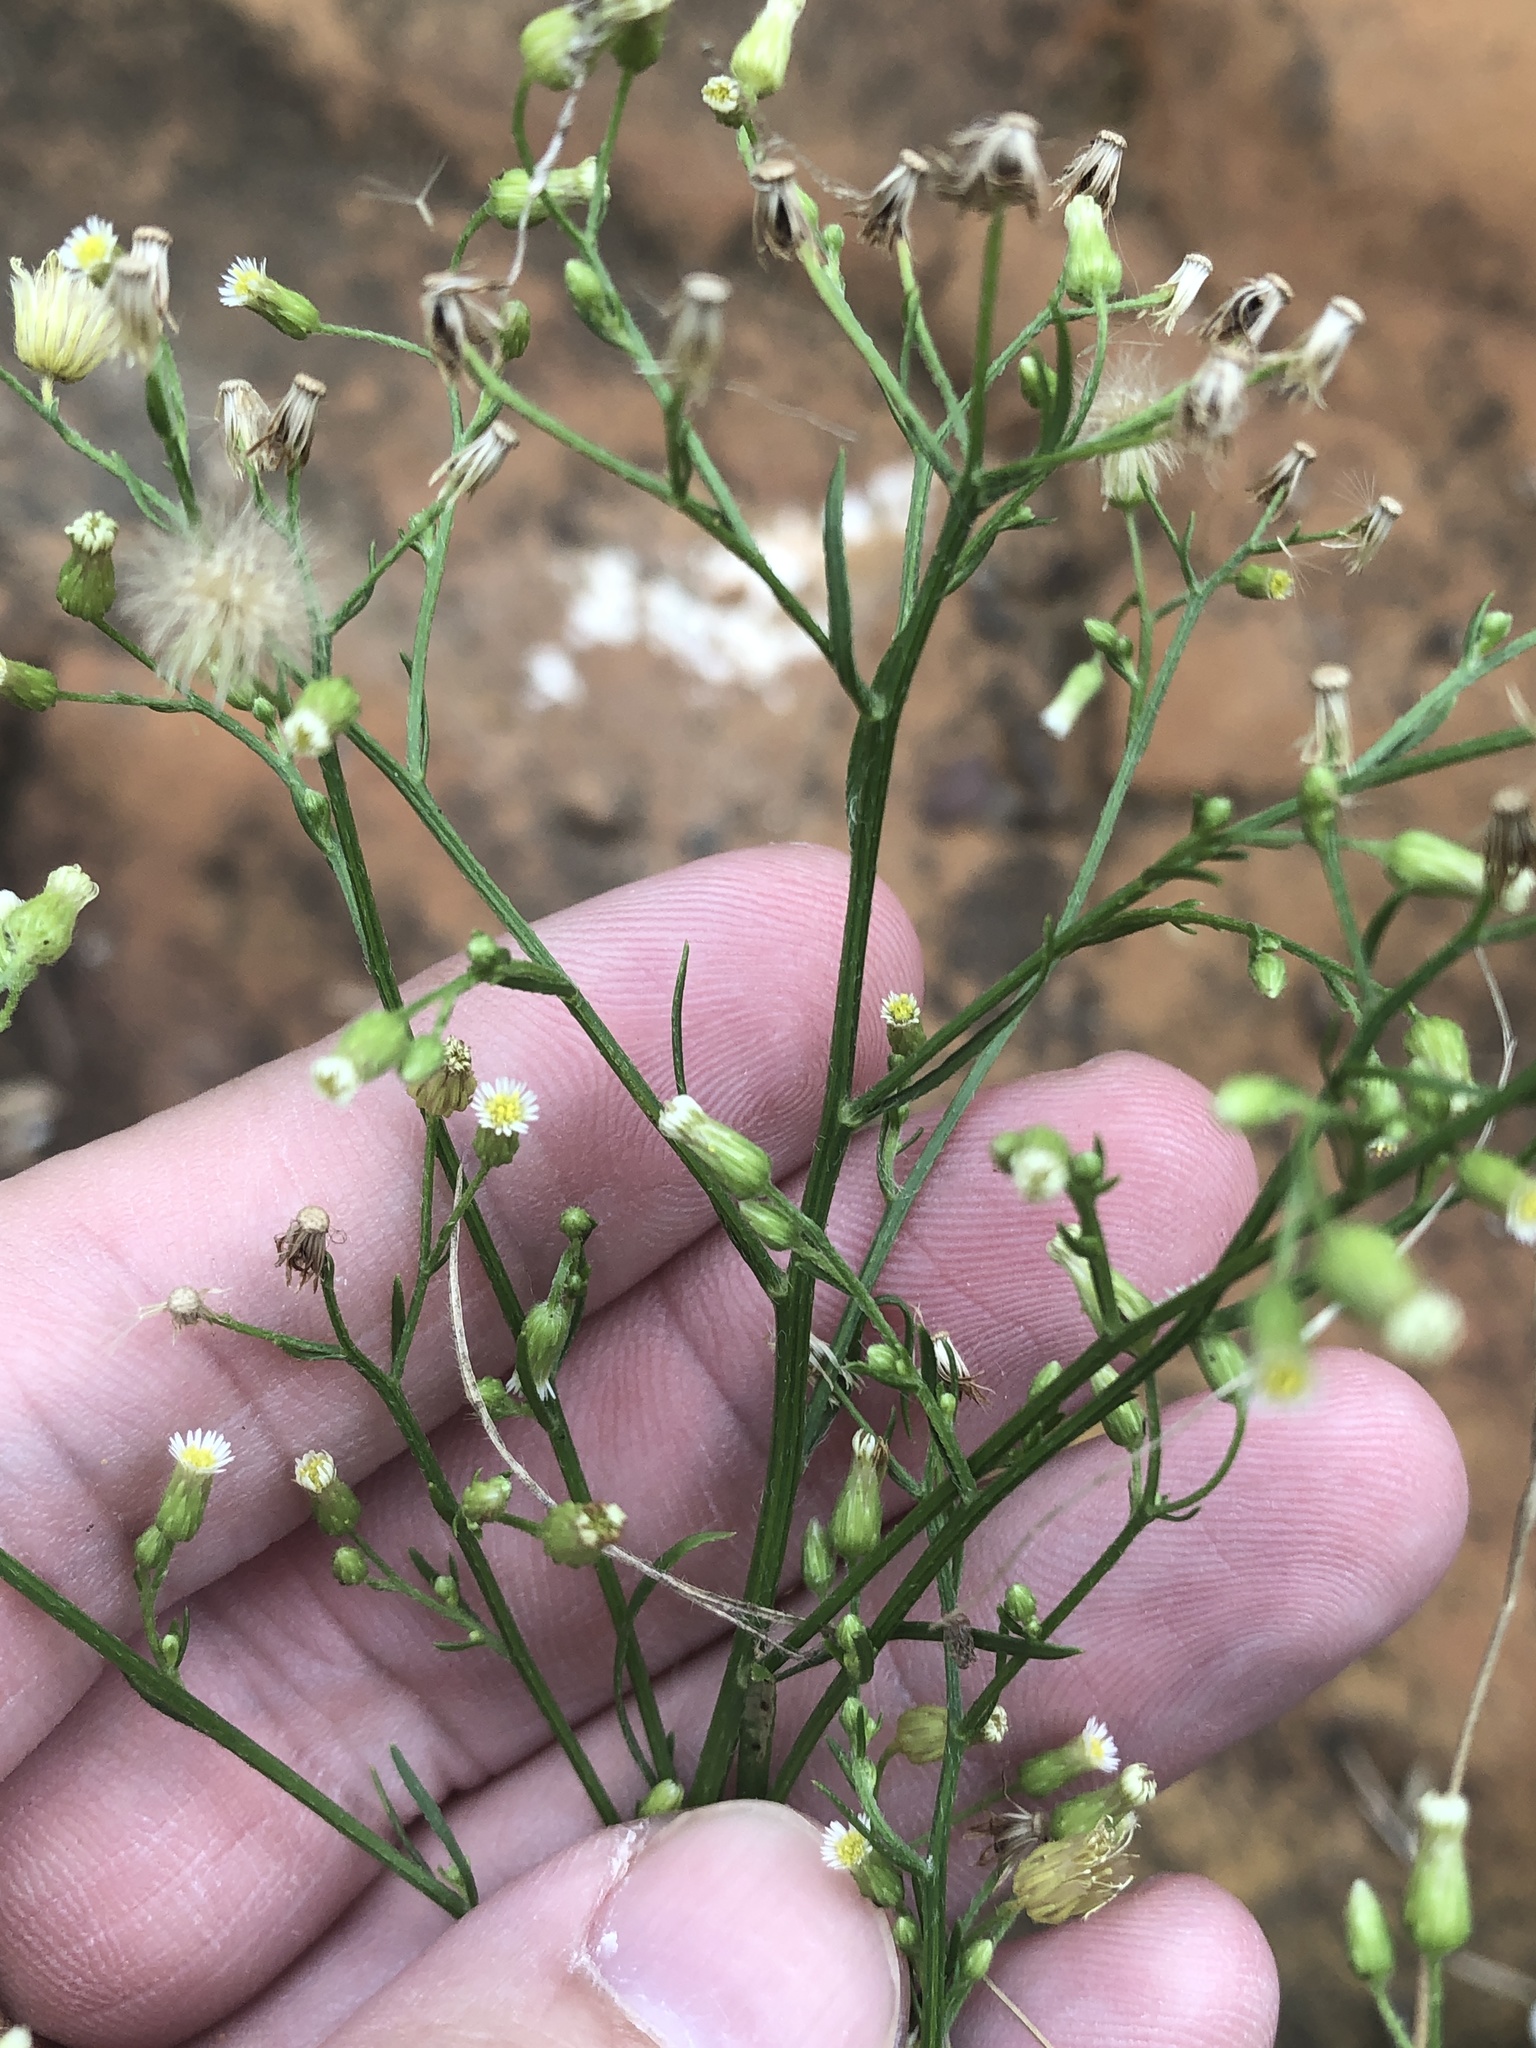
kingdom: Plantae
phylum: Tracheophyta
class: Magnoliopsida
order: Asterales
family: Asteraceae
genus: Erigeron
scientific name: Erigeron canadensis
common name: Canadian fleabane
